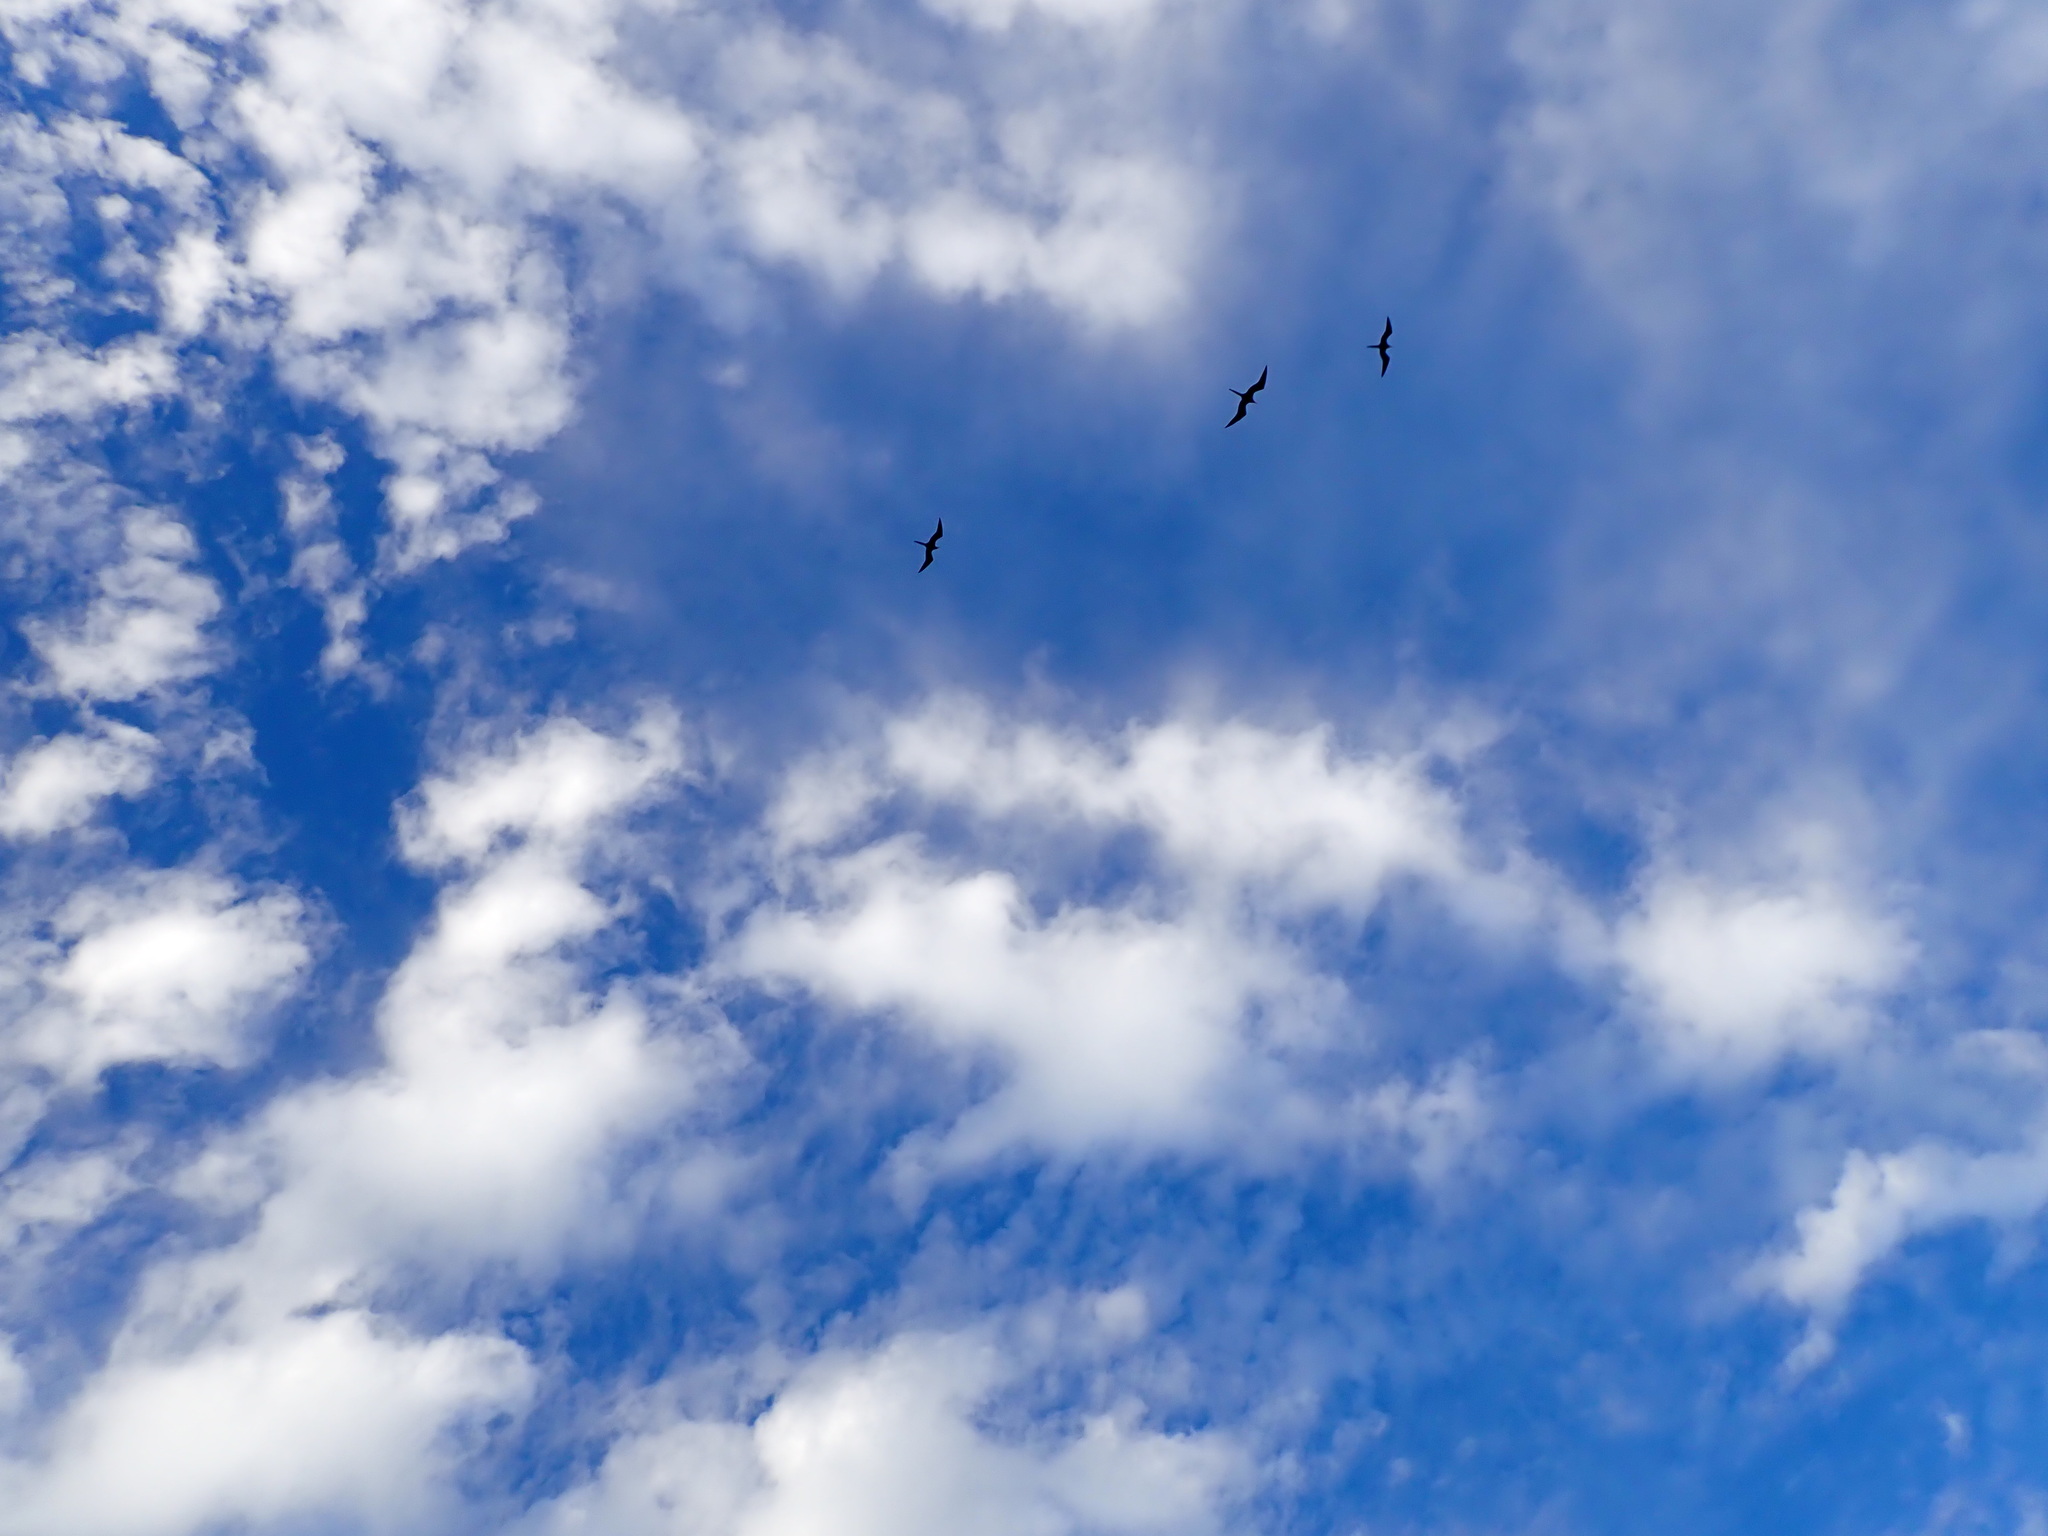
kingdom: Animalia
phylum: Chordata
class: Aves
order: Suliformes
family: Fregatidae
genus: Fregata
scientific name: Fregata magnificens
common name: Magnificent frigatebird
